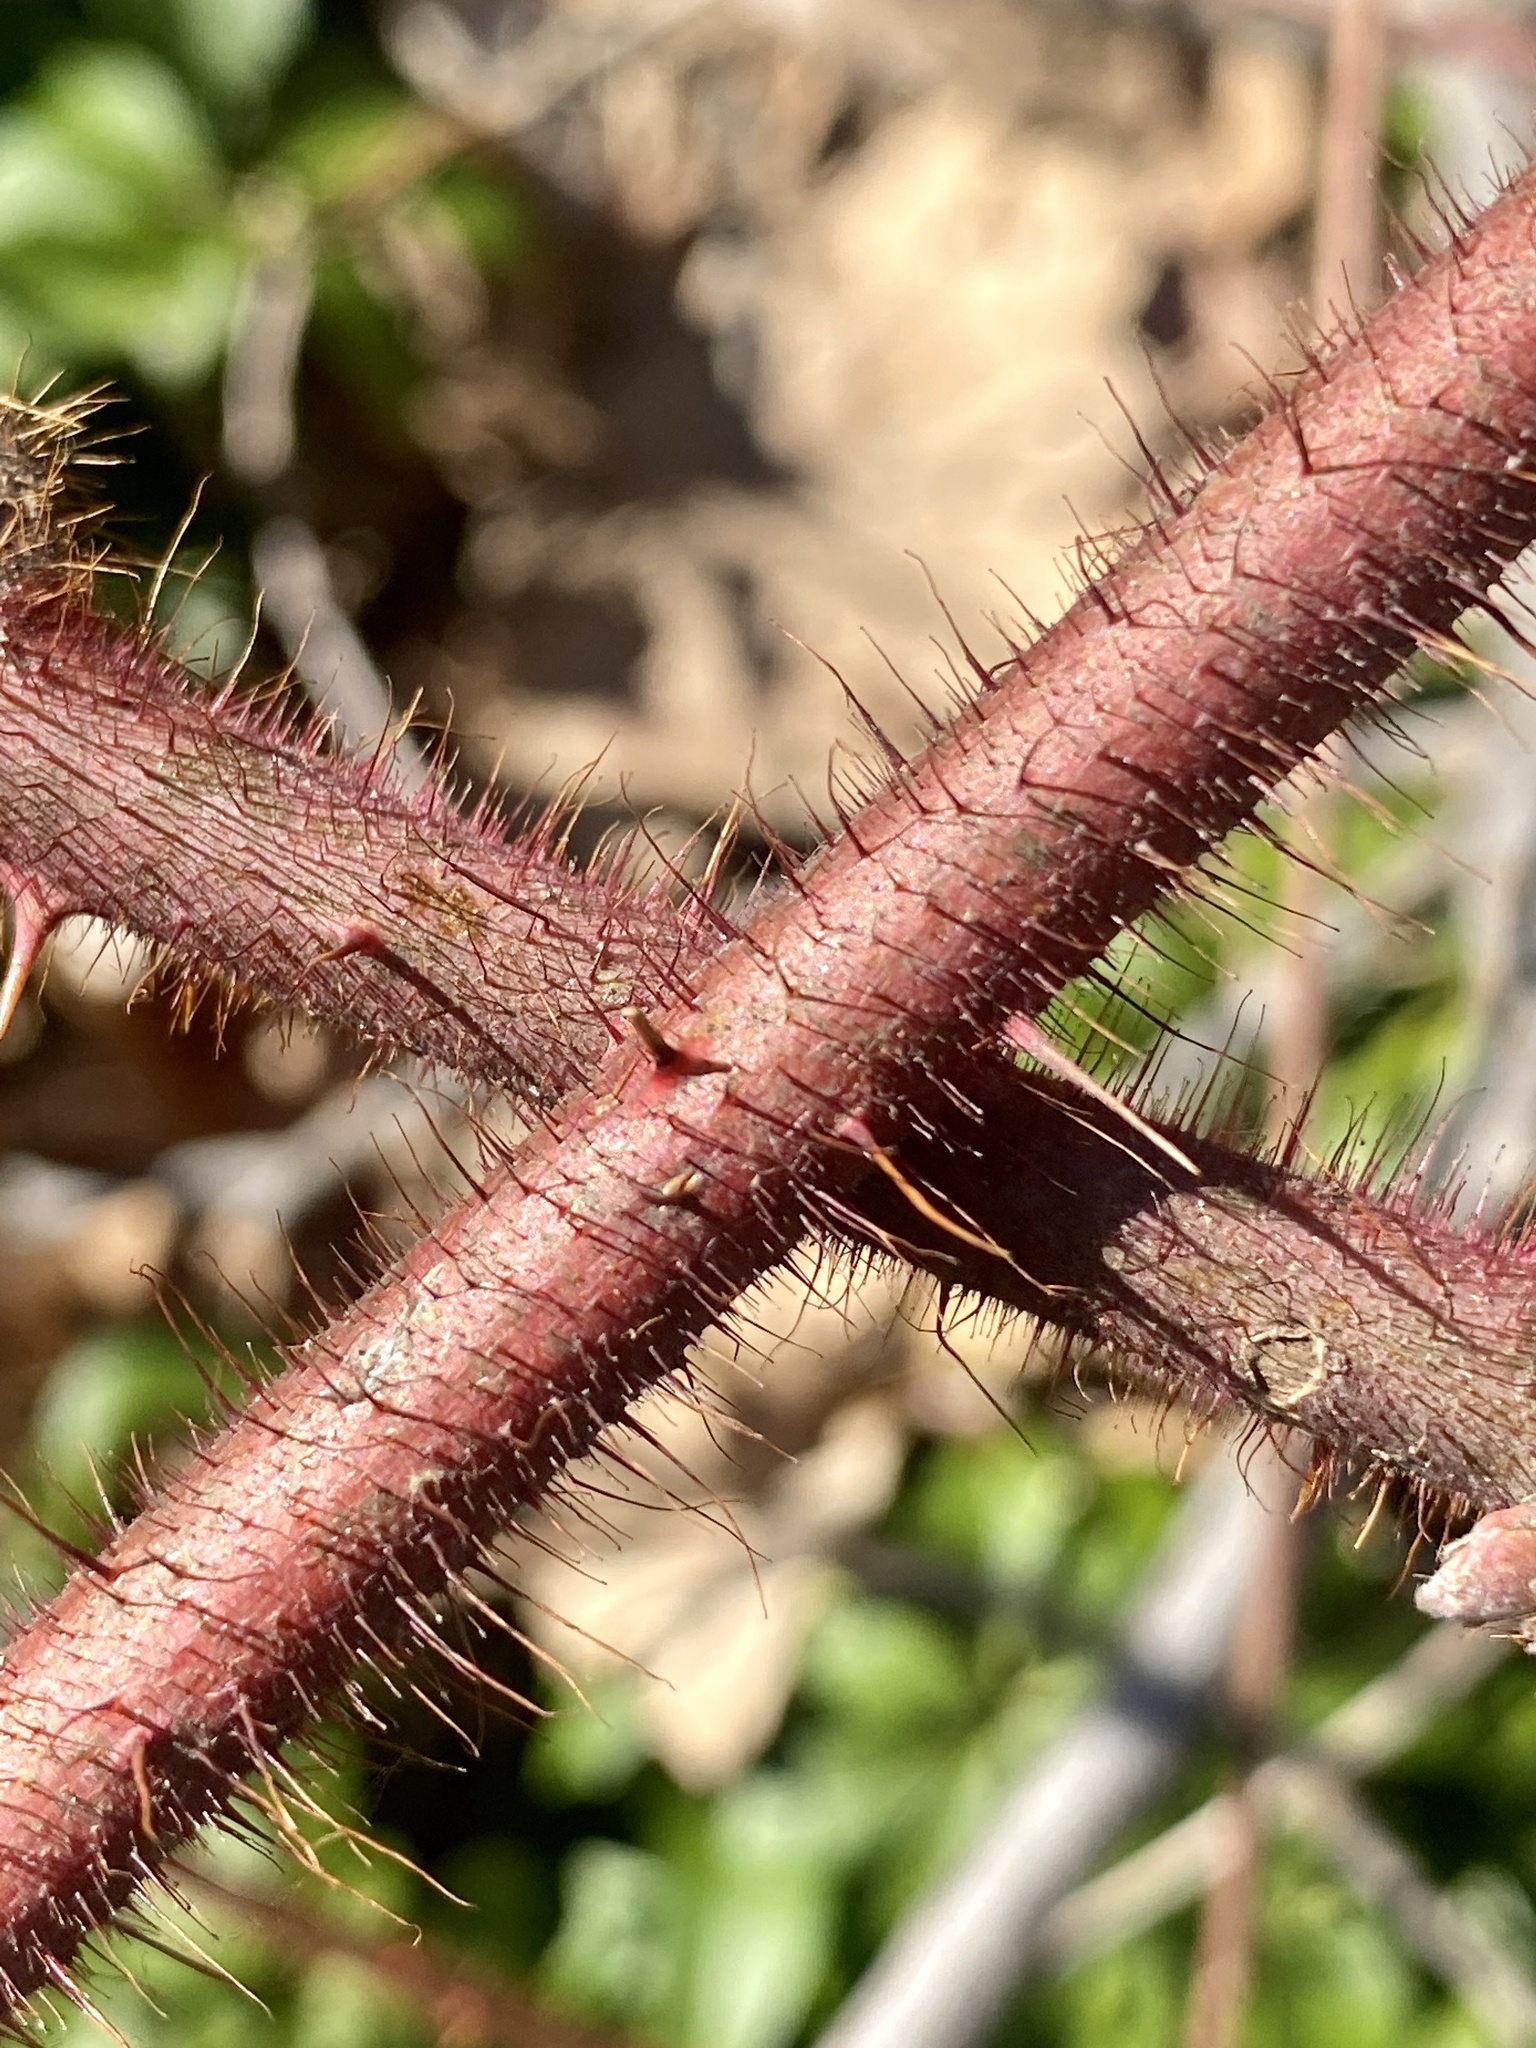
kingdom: Plantae
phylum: Tracheophyta
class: Magnoliopsida
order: Rosales
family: Rosaceae
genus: Rubus
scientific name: Rubus phoenicolasius
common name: Japanese wineberry
